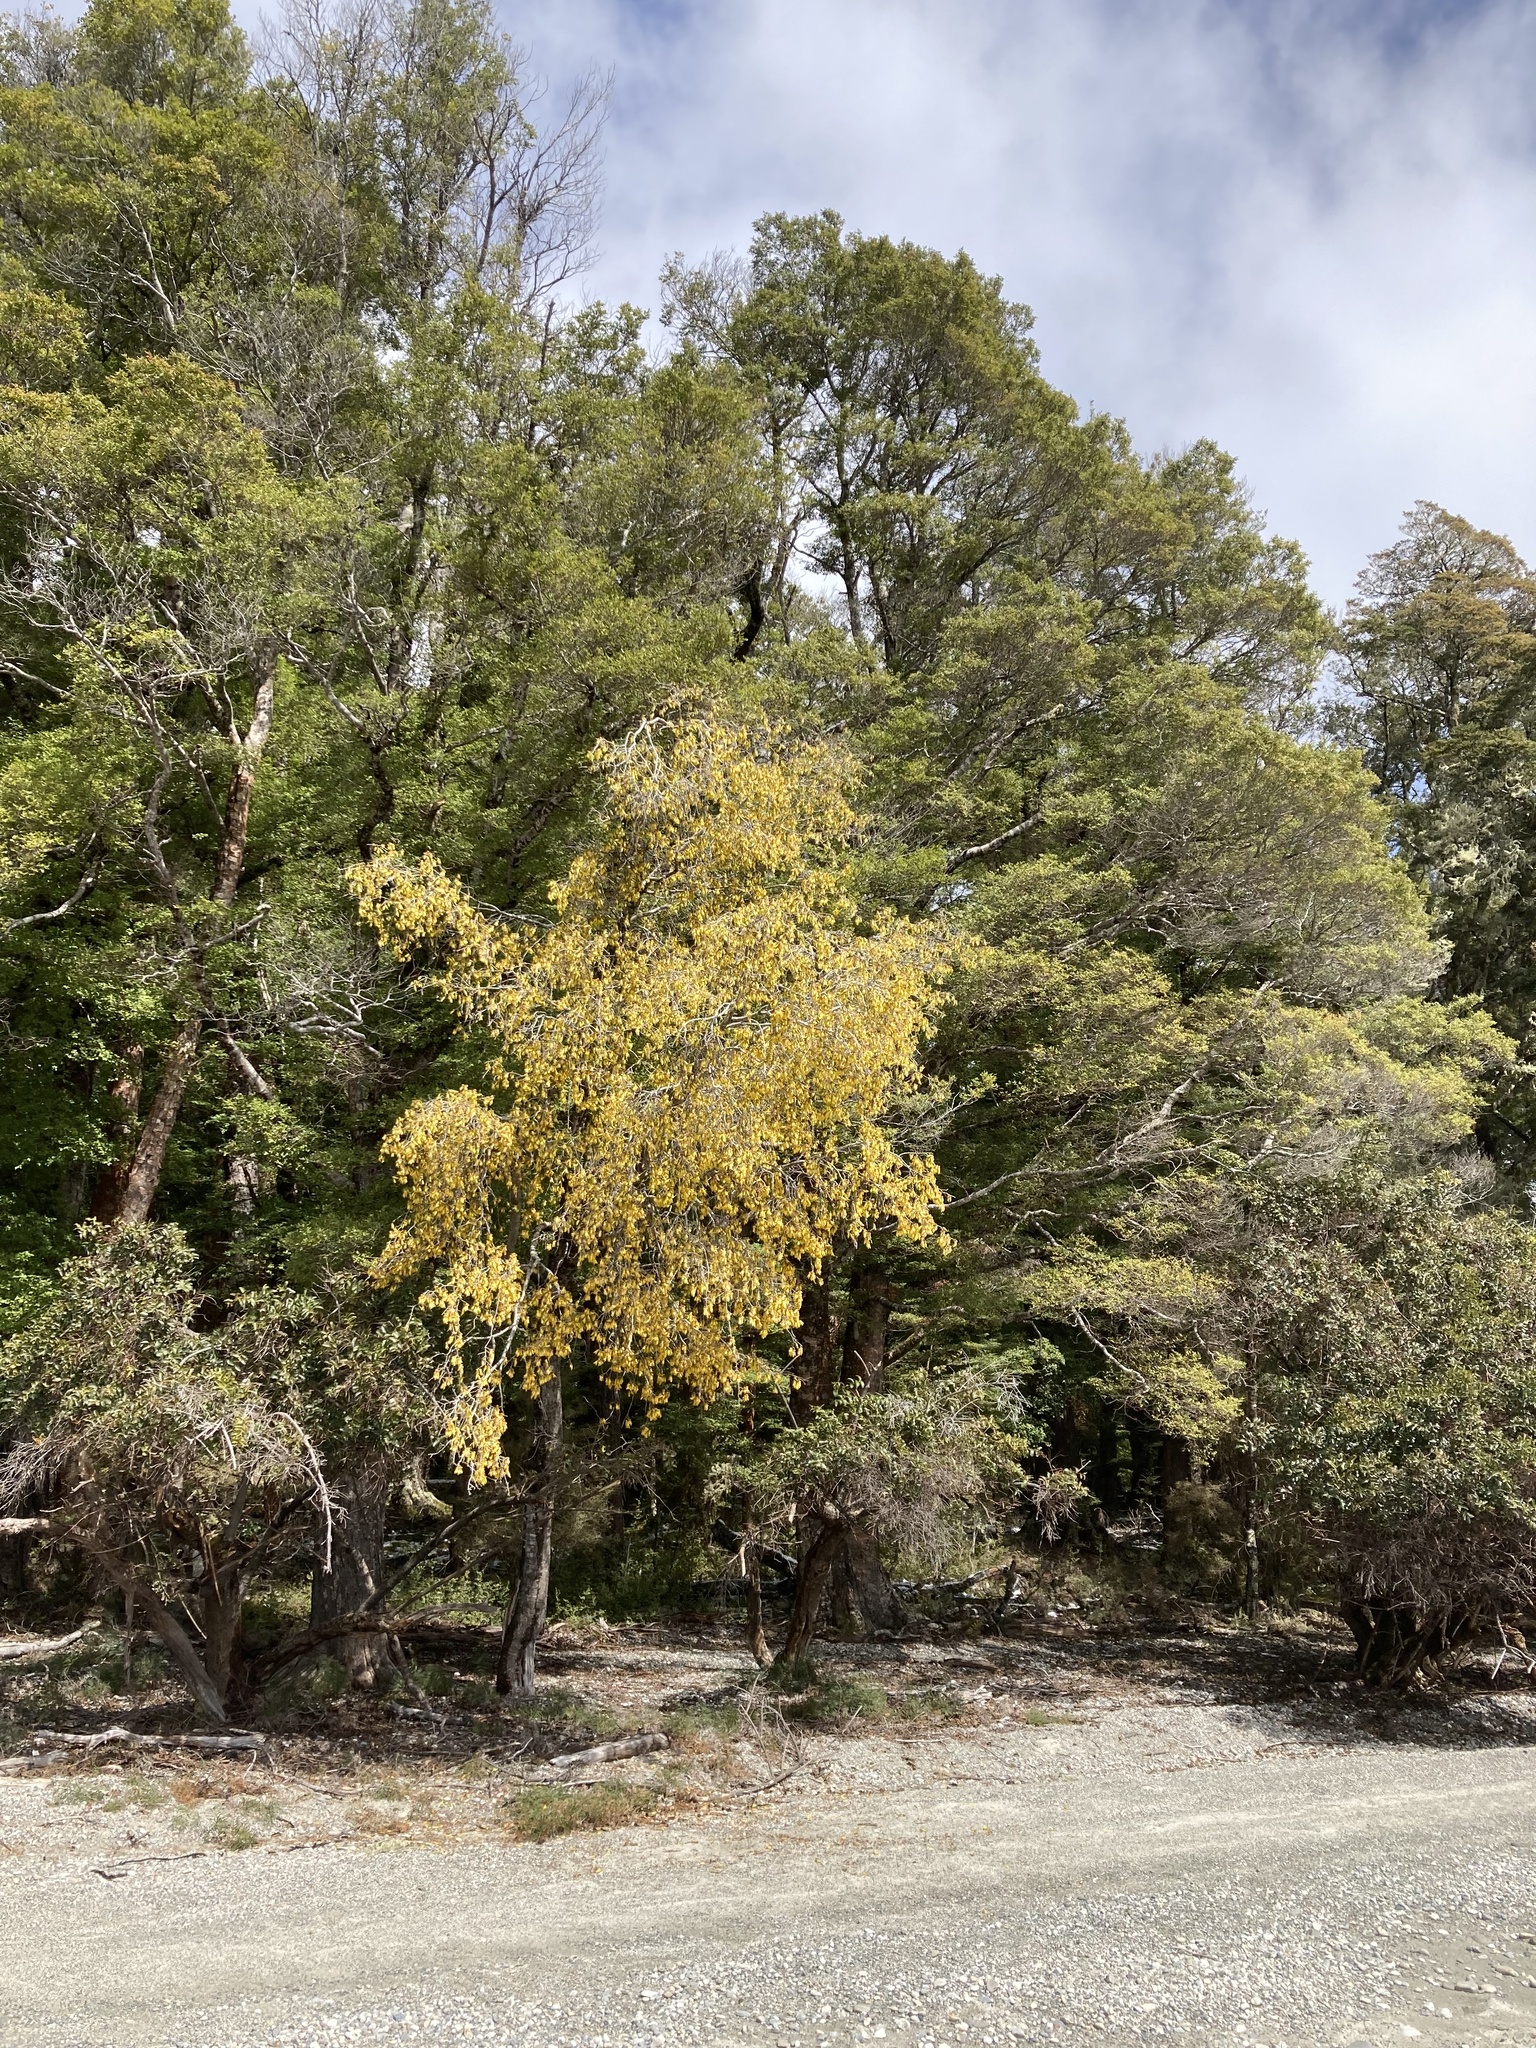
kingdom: Plantae
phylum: Tracheophyta
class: Magnoliopsida
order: Fabales
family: Fabaceae
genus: Sophora
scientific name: Sophora microphylla
